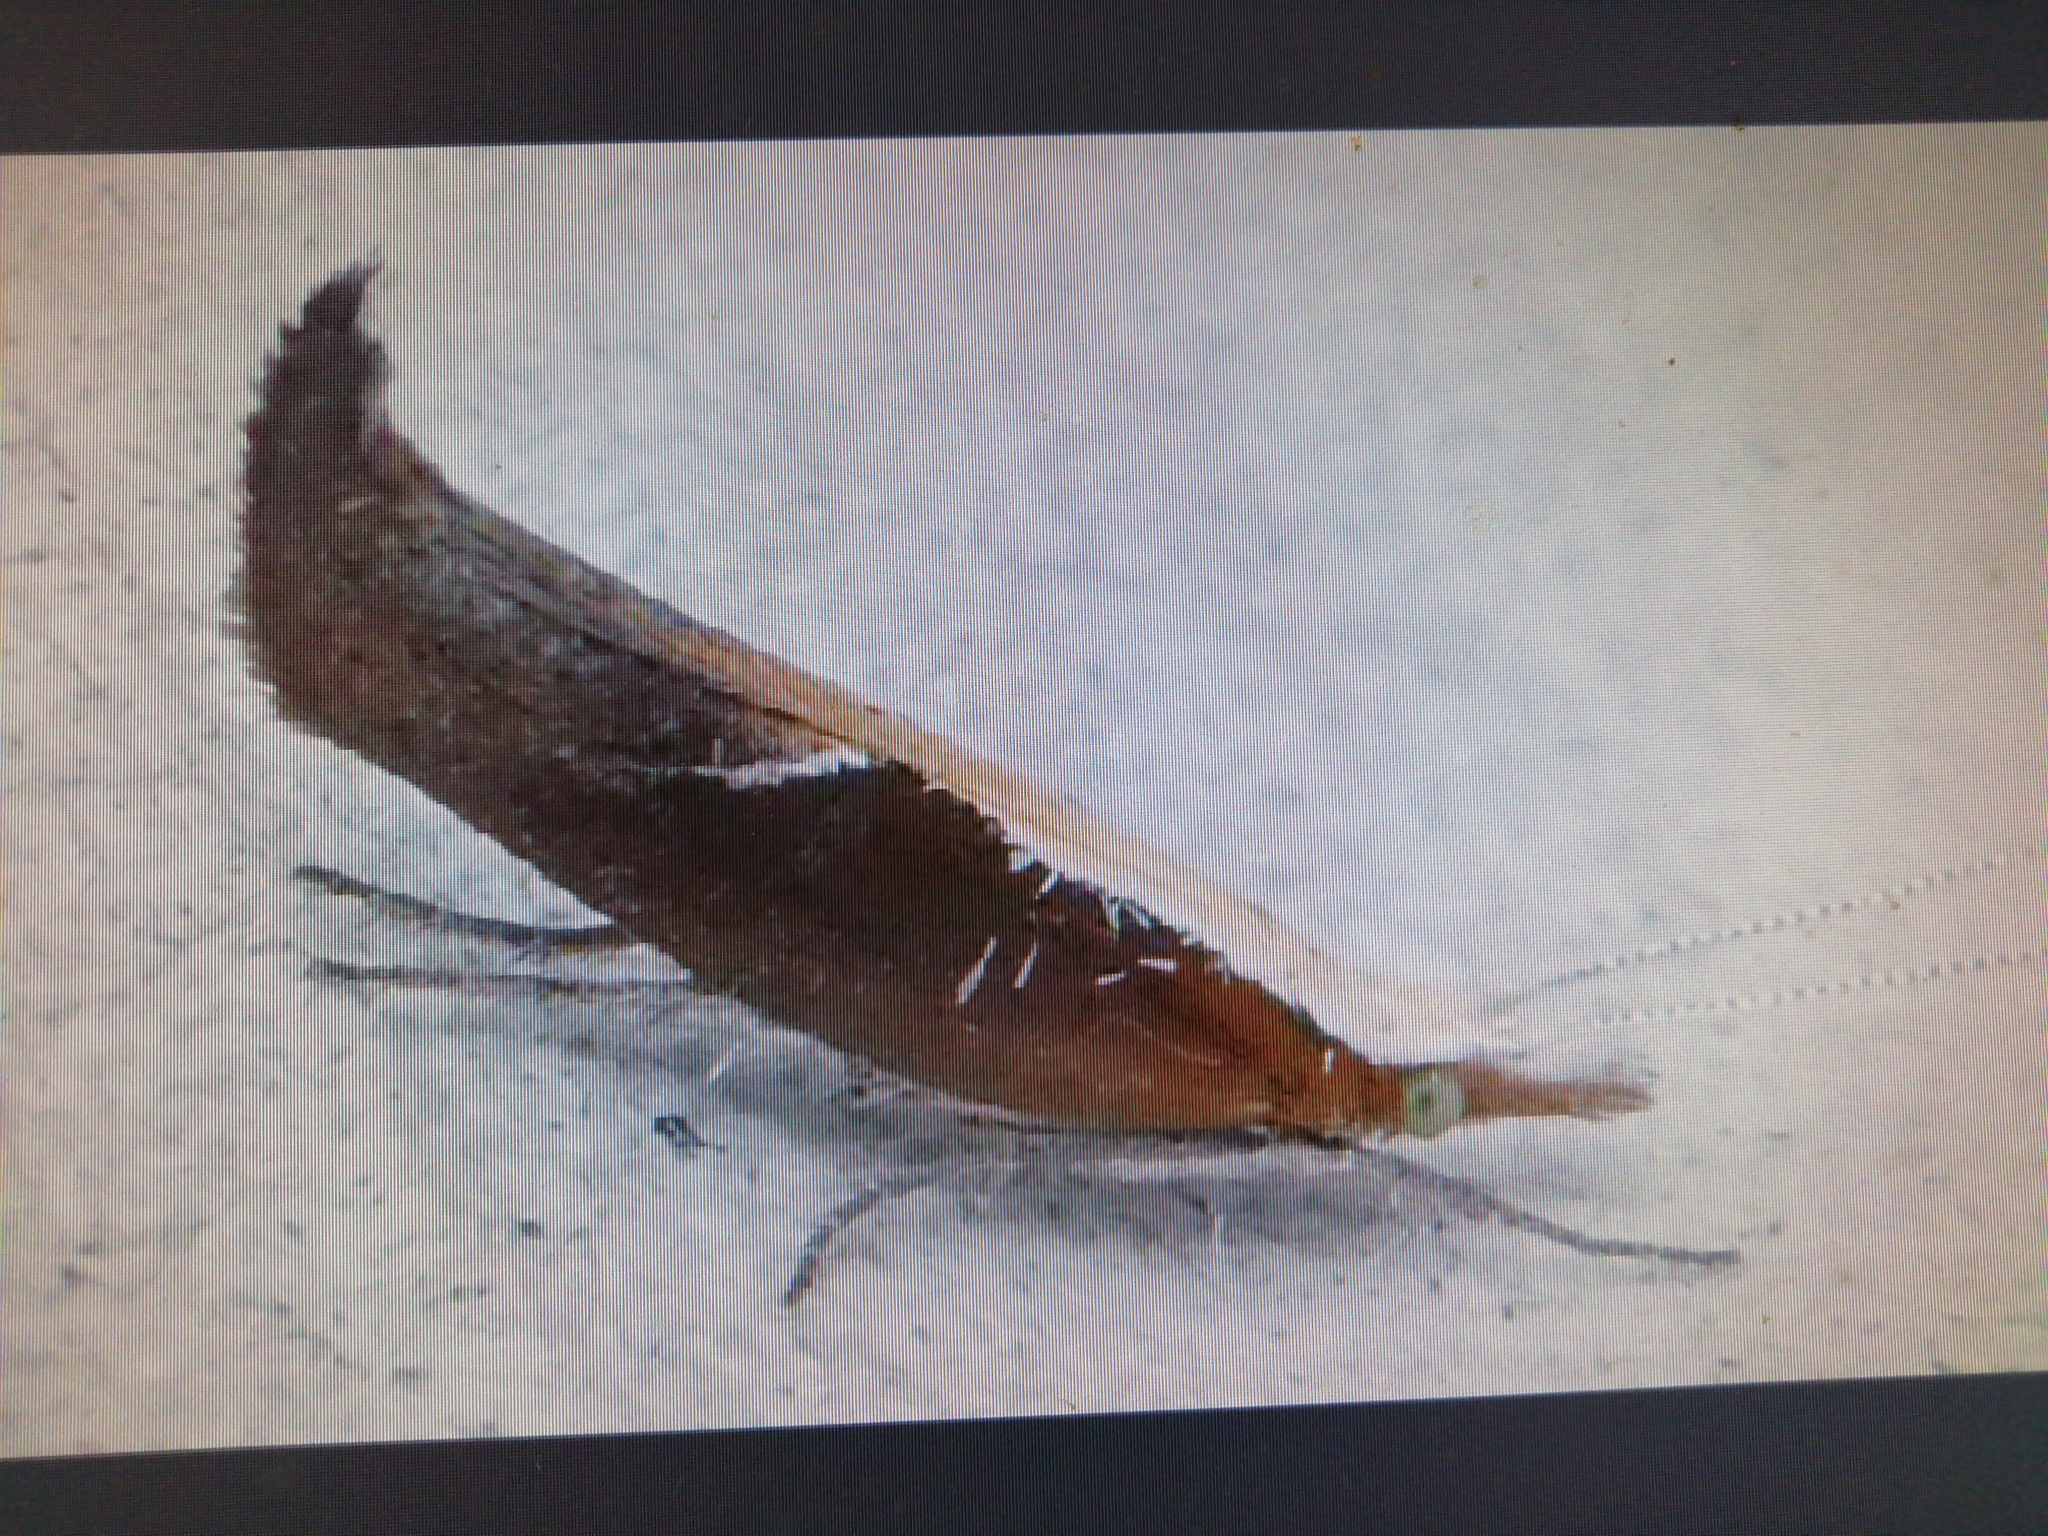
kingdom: Animalia
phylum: Arthropoda
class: Insecta
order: Lepidoptera
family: Ypsolophidae
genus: Ypsolopha
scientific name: Ypsolopha dentella
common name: Honeysuckle moth
